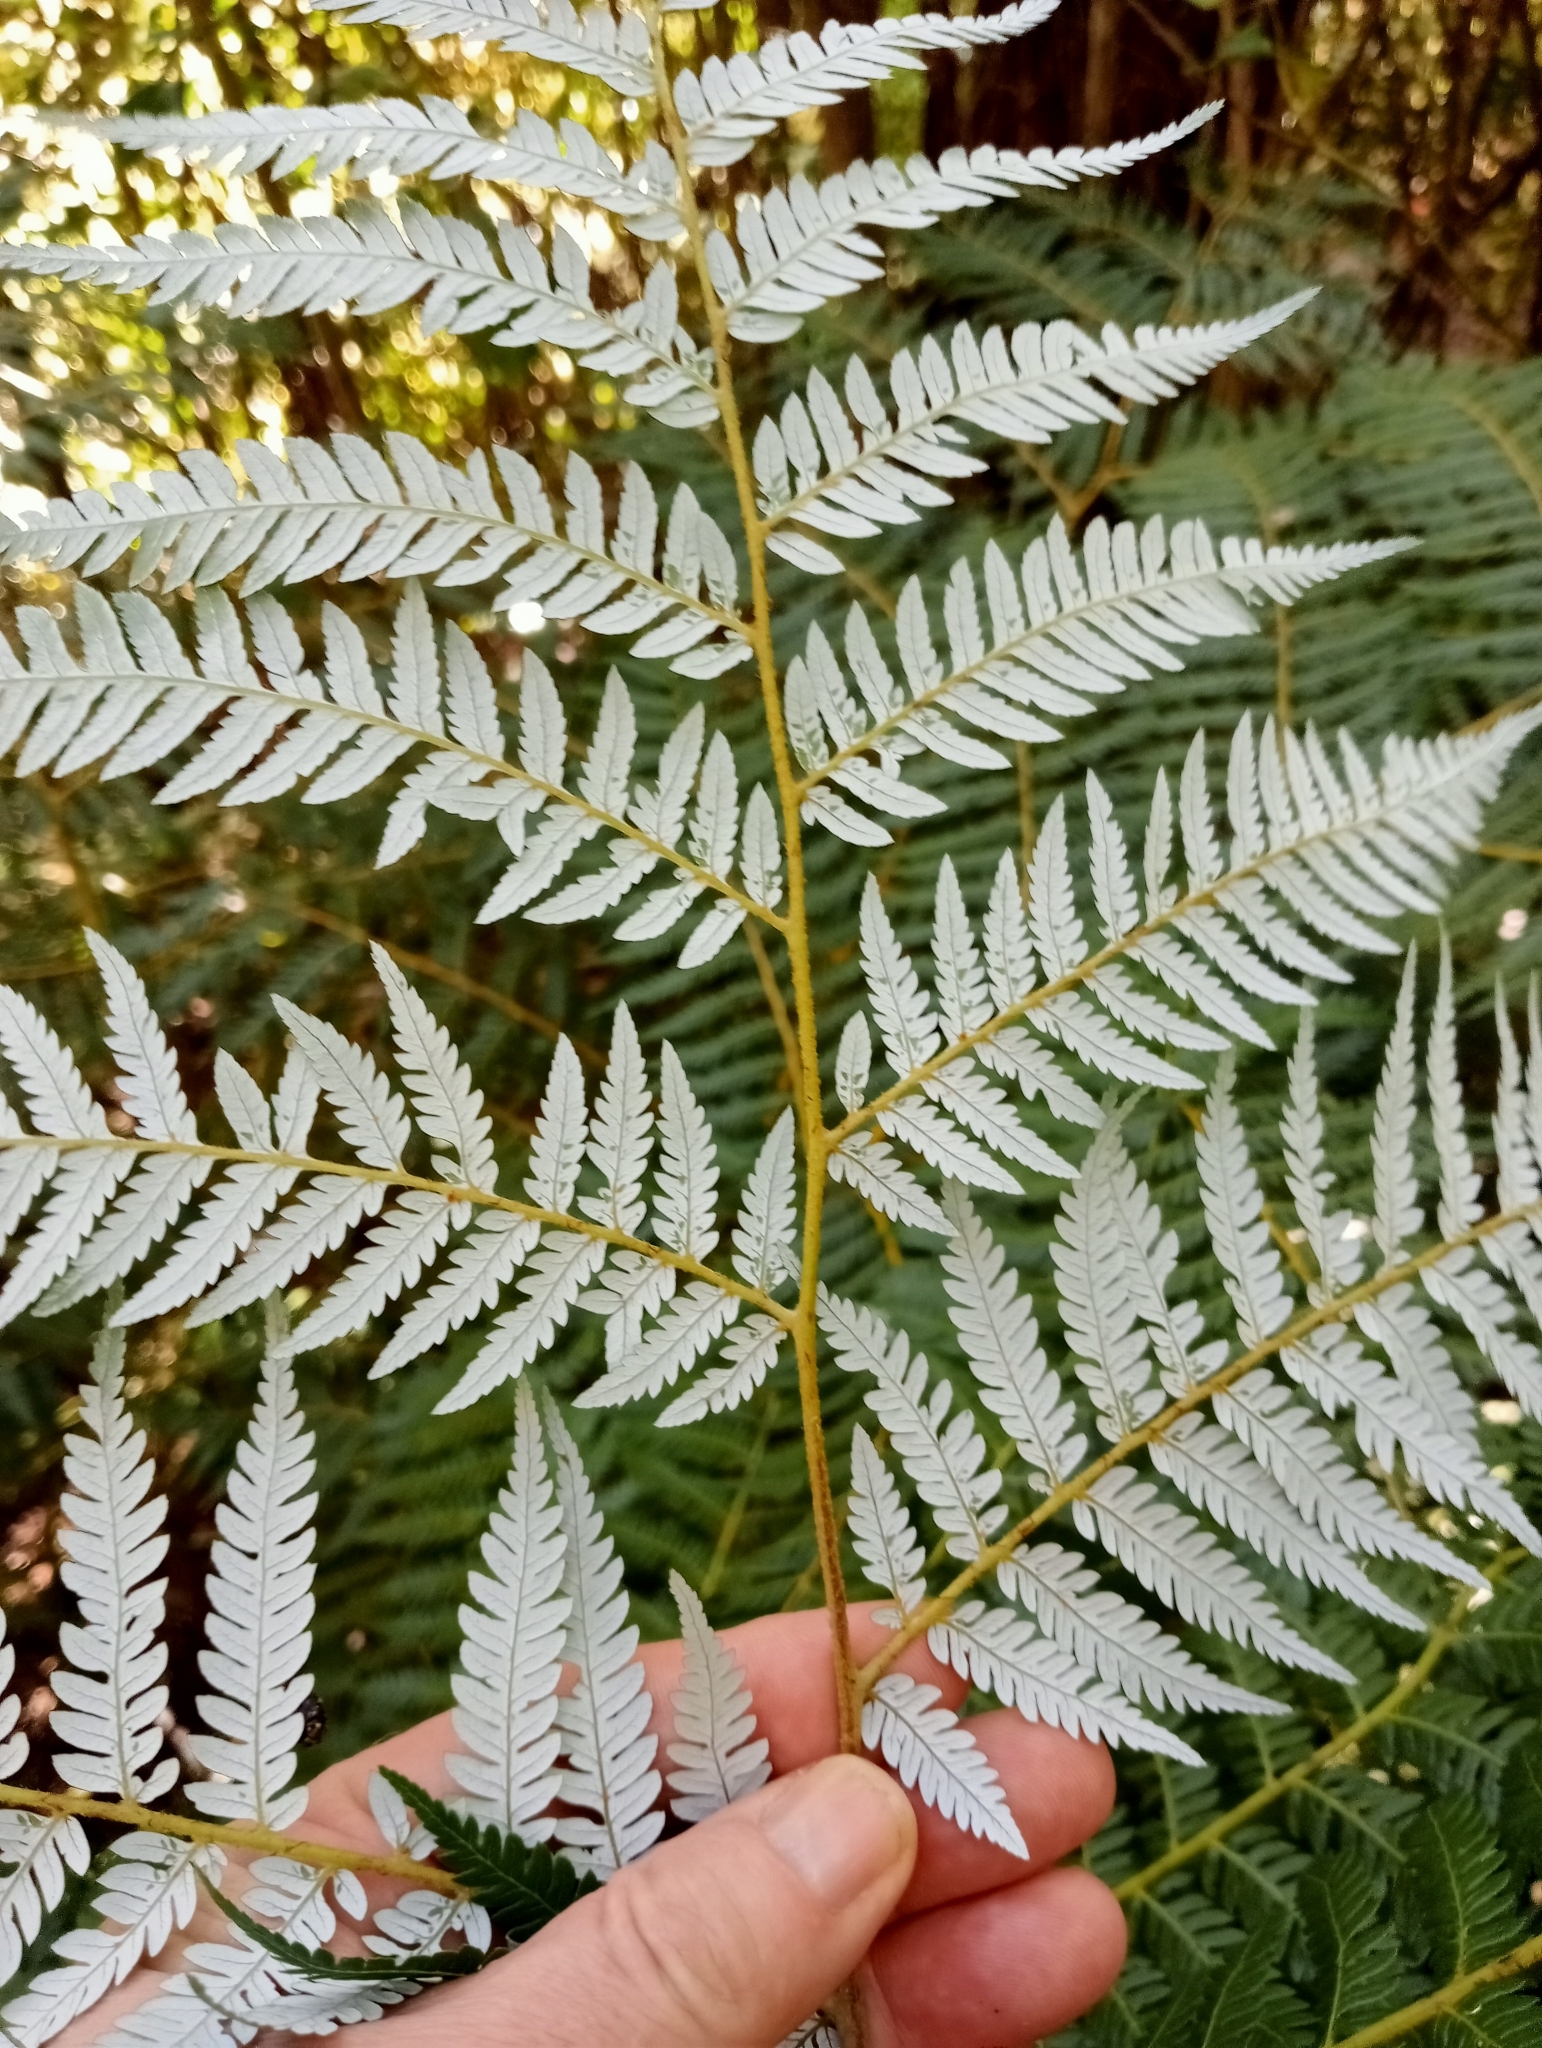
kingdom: Plantae
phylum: Tracheophyta
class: Polypodiopsida
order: Cyatheales
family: Cyatheaceae
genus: Alsophila
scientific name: Alsophila dealbata
